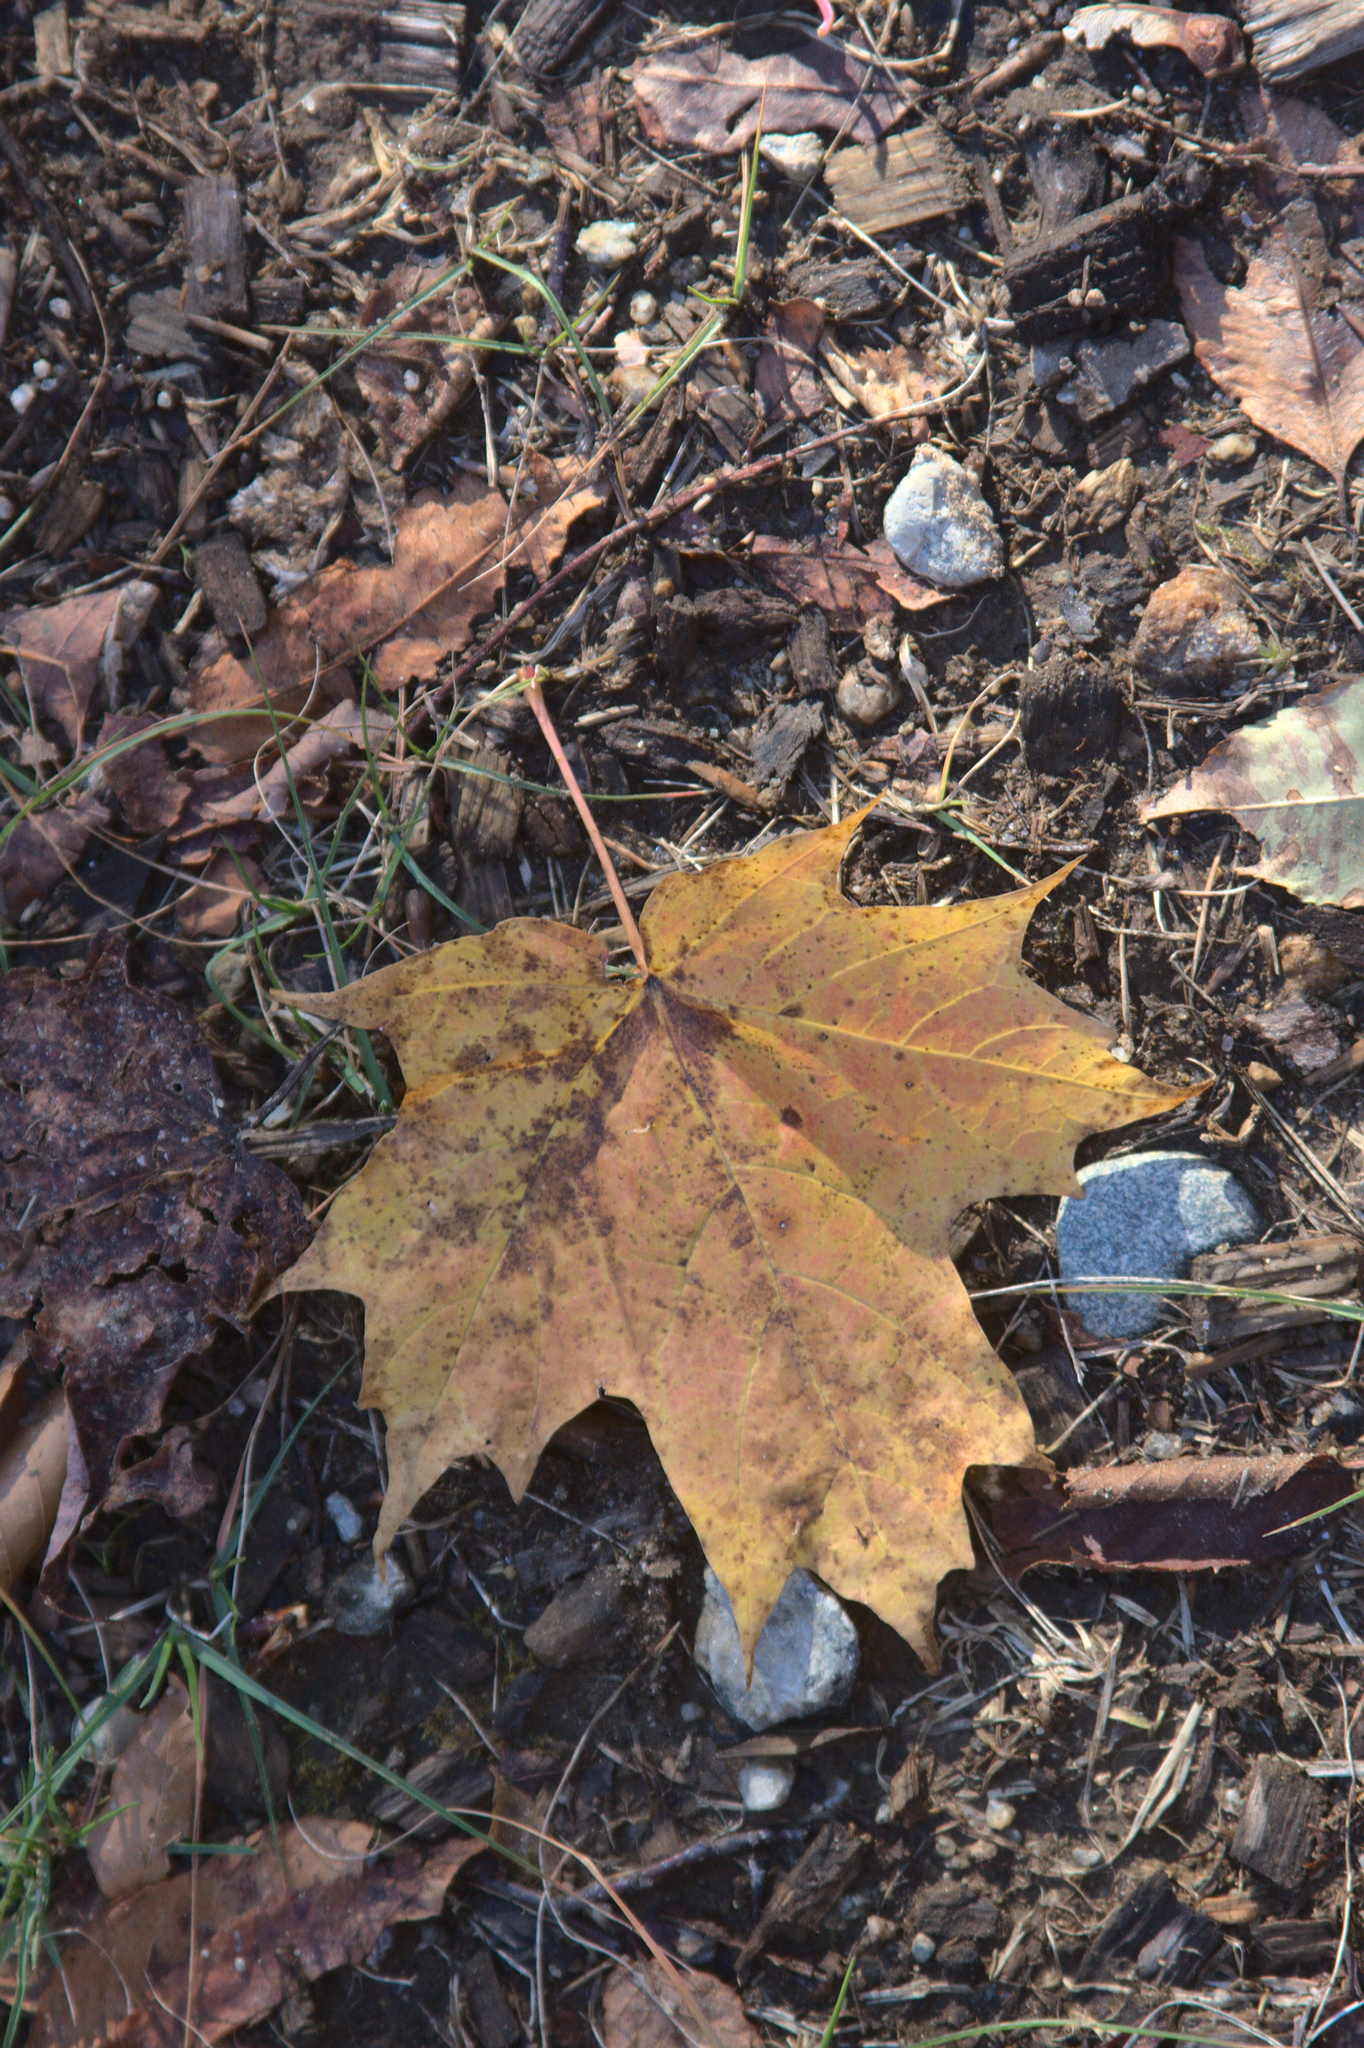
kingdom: Plantae
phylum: Tracheophyta
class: Magnoliopsida
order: Sapindales
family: Sapindaceae
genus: Acer
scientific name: Acer saccharum
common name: Sugar maple
